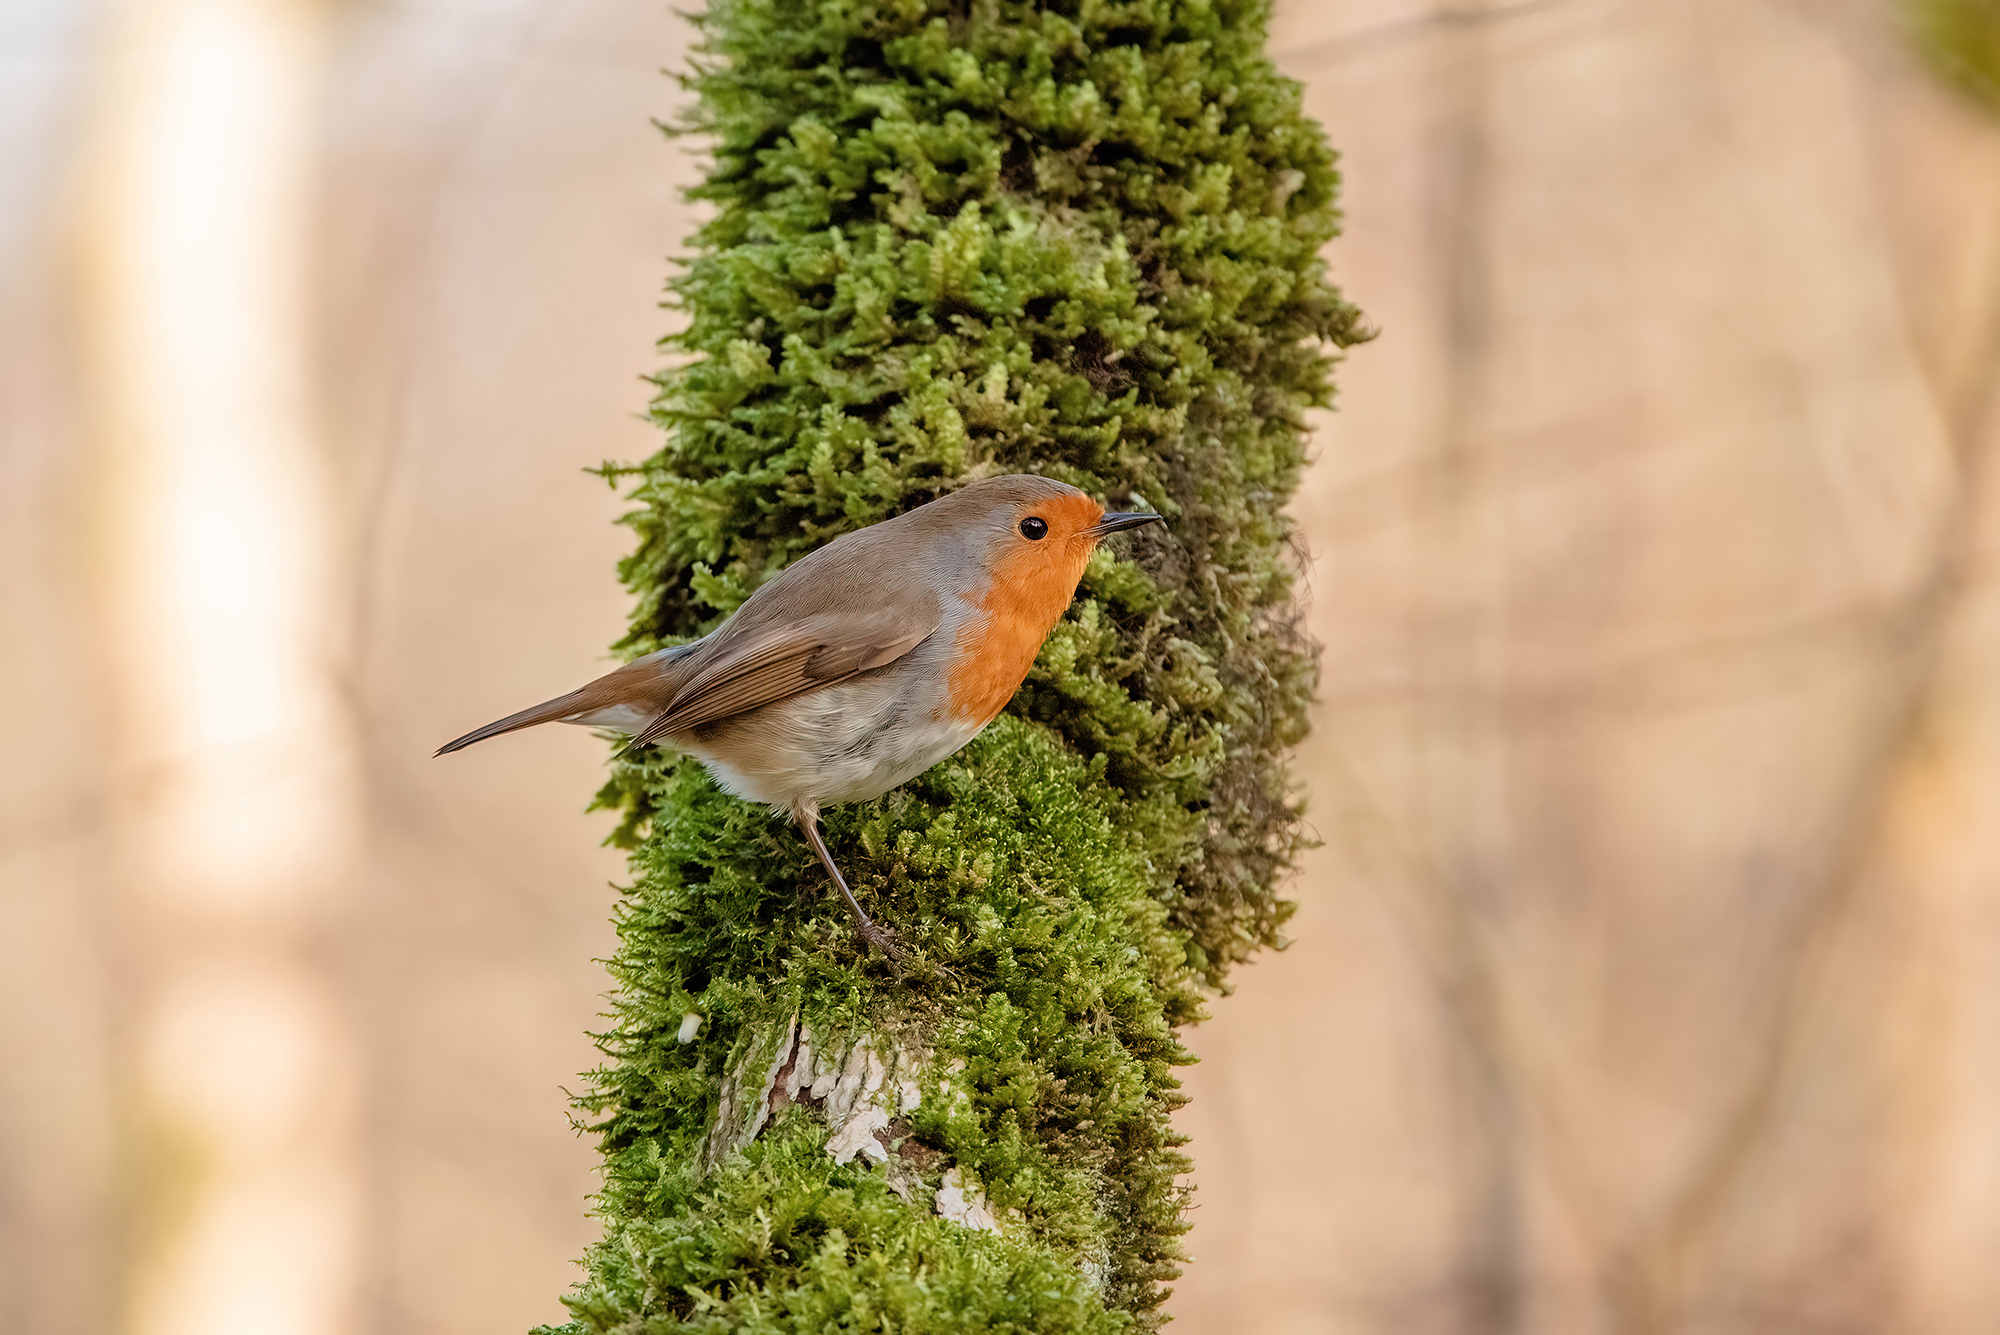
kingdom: Animalia
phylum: Chordata
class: Aves
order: Passeriformes
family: Muscicapidae
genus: Erithacus
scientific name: Erithacus rubecula
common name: European robin
